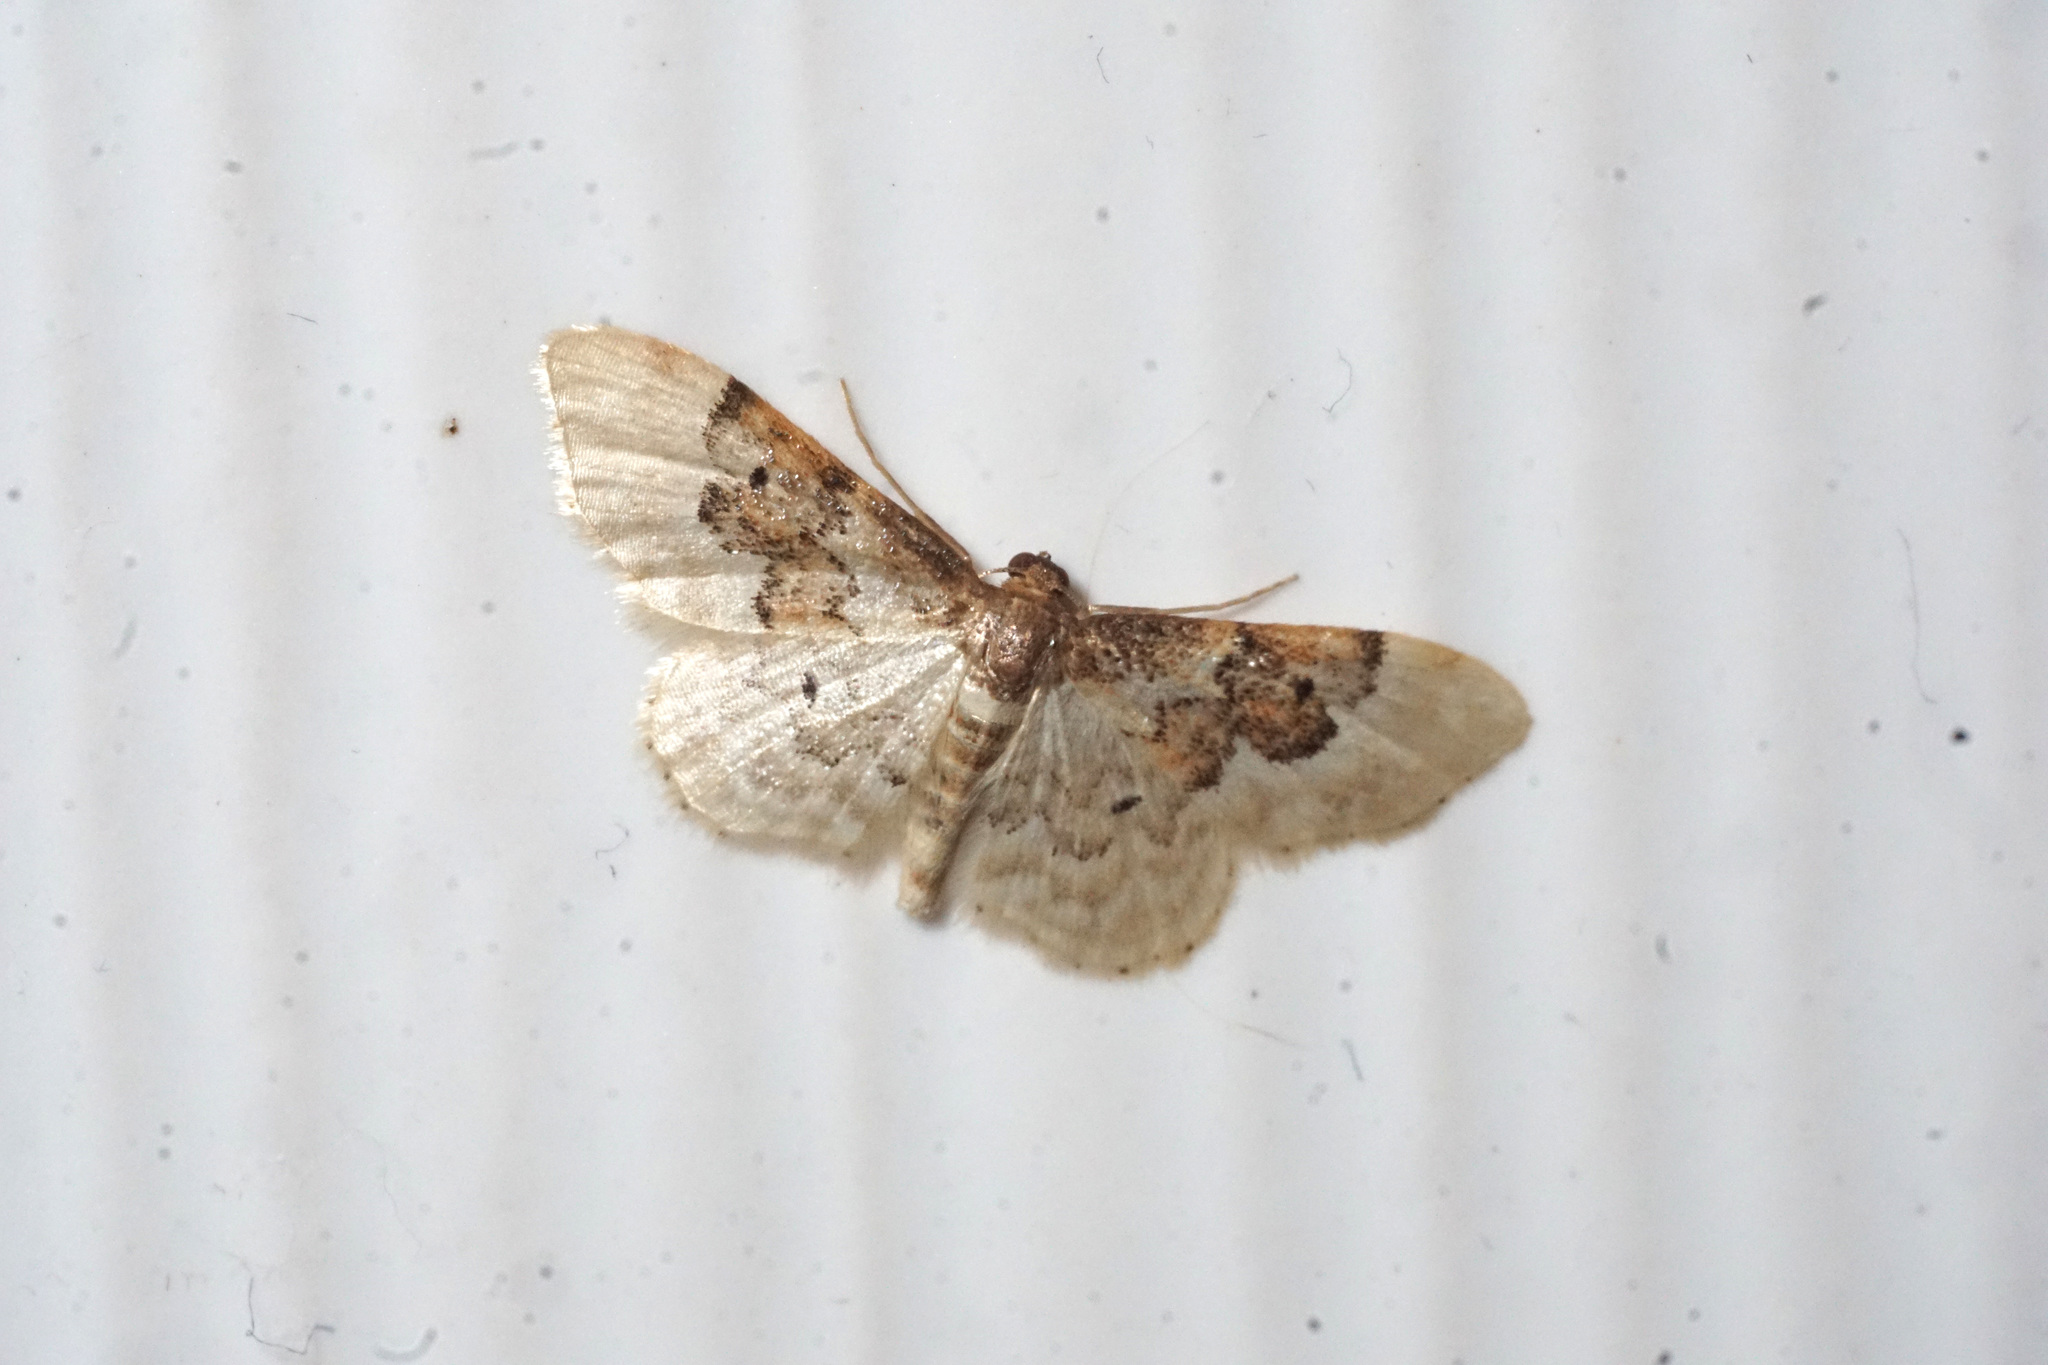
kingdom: Animalia
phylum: Arthropoda
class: Insecta
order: Lepidoptera
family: Geometridae
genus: Idaea
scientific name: Idaea rusticata
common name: Least carpet
